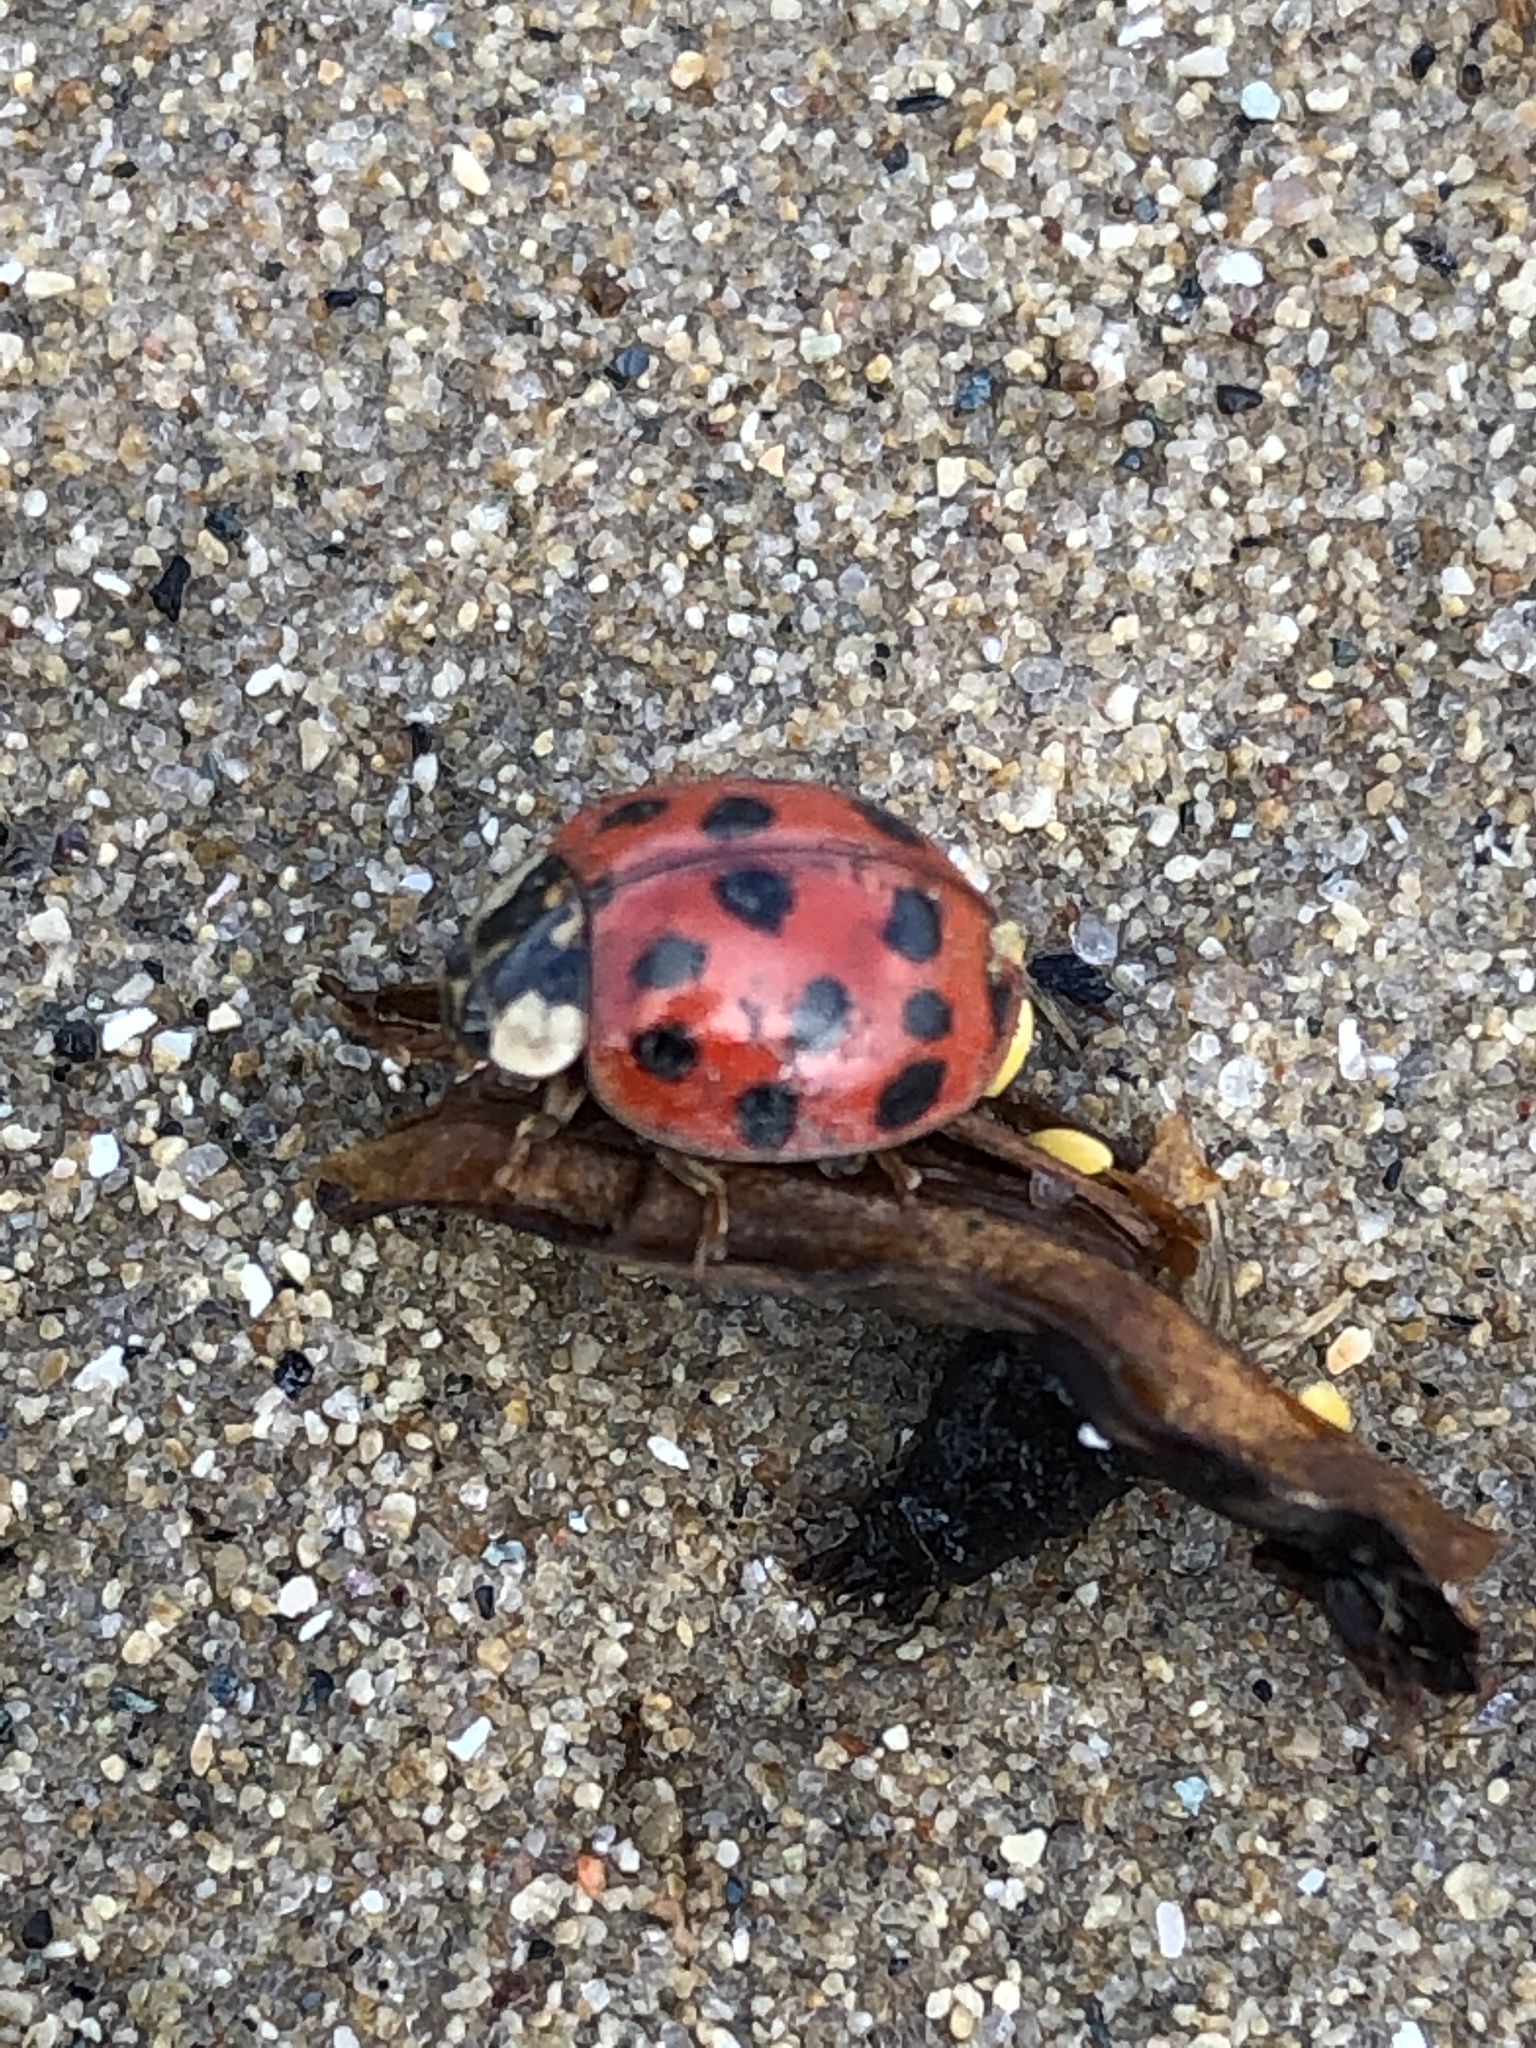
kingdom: Animalia
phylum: Arthropoda
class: Insecta
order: Coleoptera
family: Coccinellidae
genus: Harmonia
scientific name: Harmonia axyridis
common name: Harlequin ladybird
